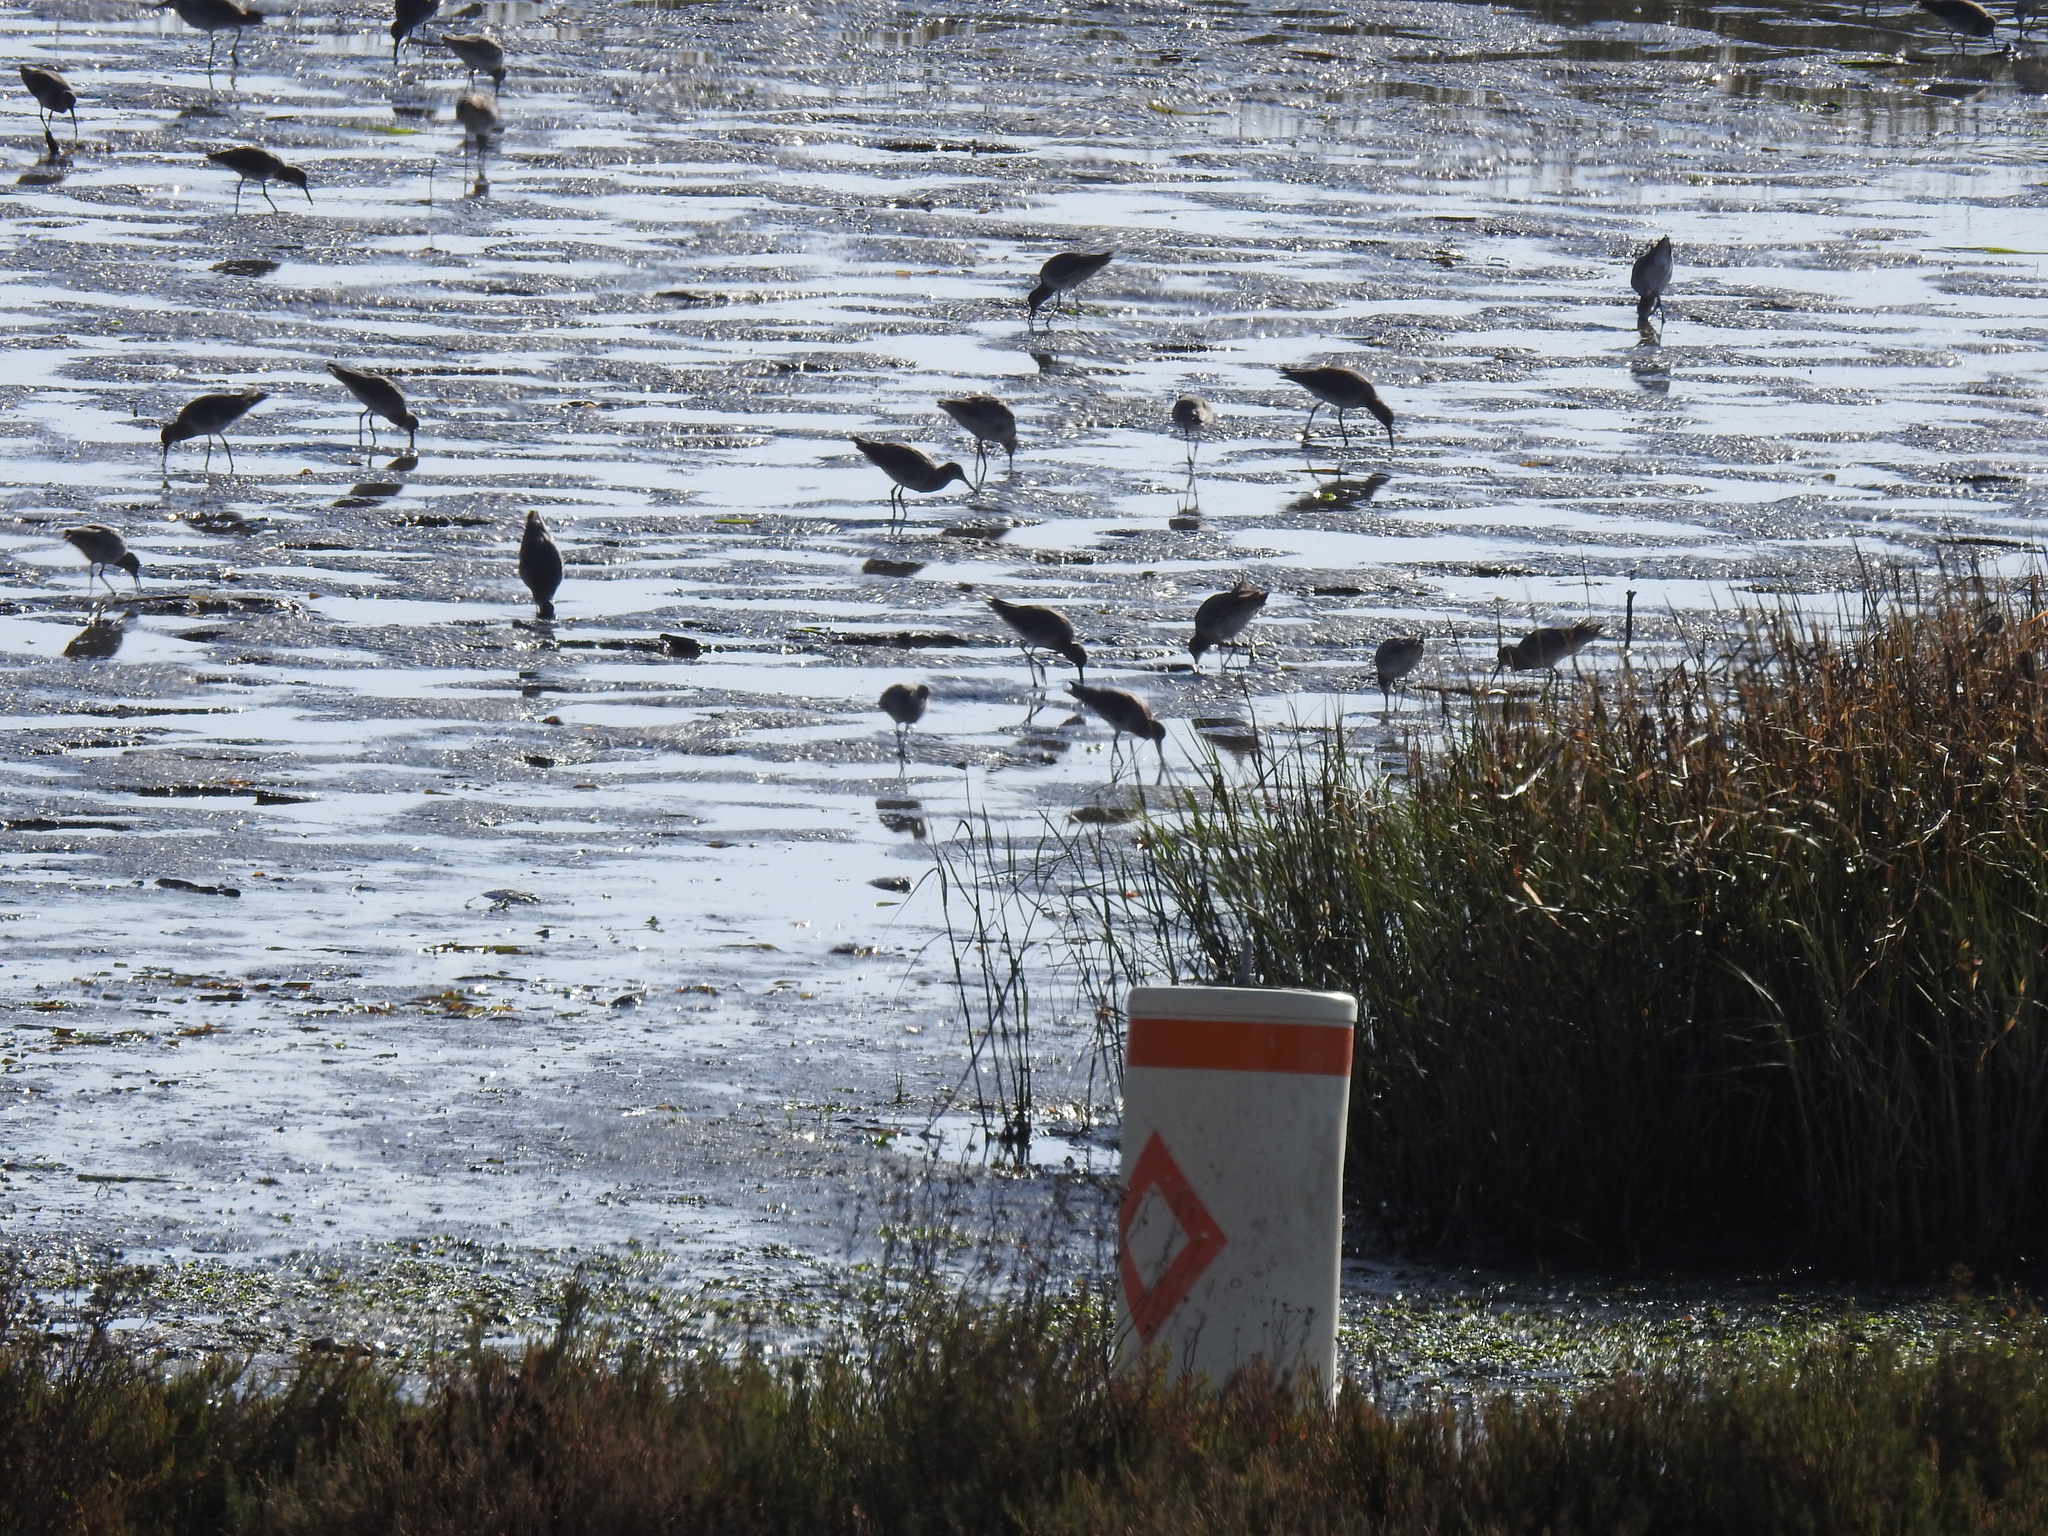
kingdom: Animalia
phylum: Chordata
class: Aves
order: Charadriiformes
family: Scolopacidae
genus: Tringa
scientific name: Tringa semipalmata
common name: Willet
